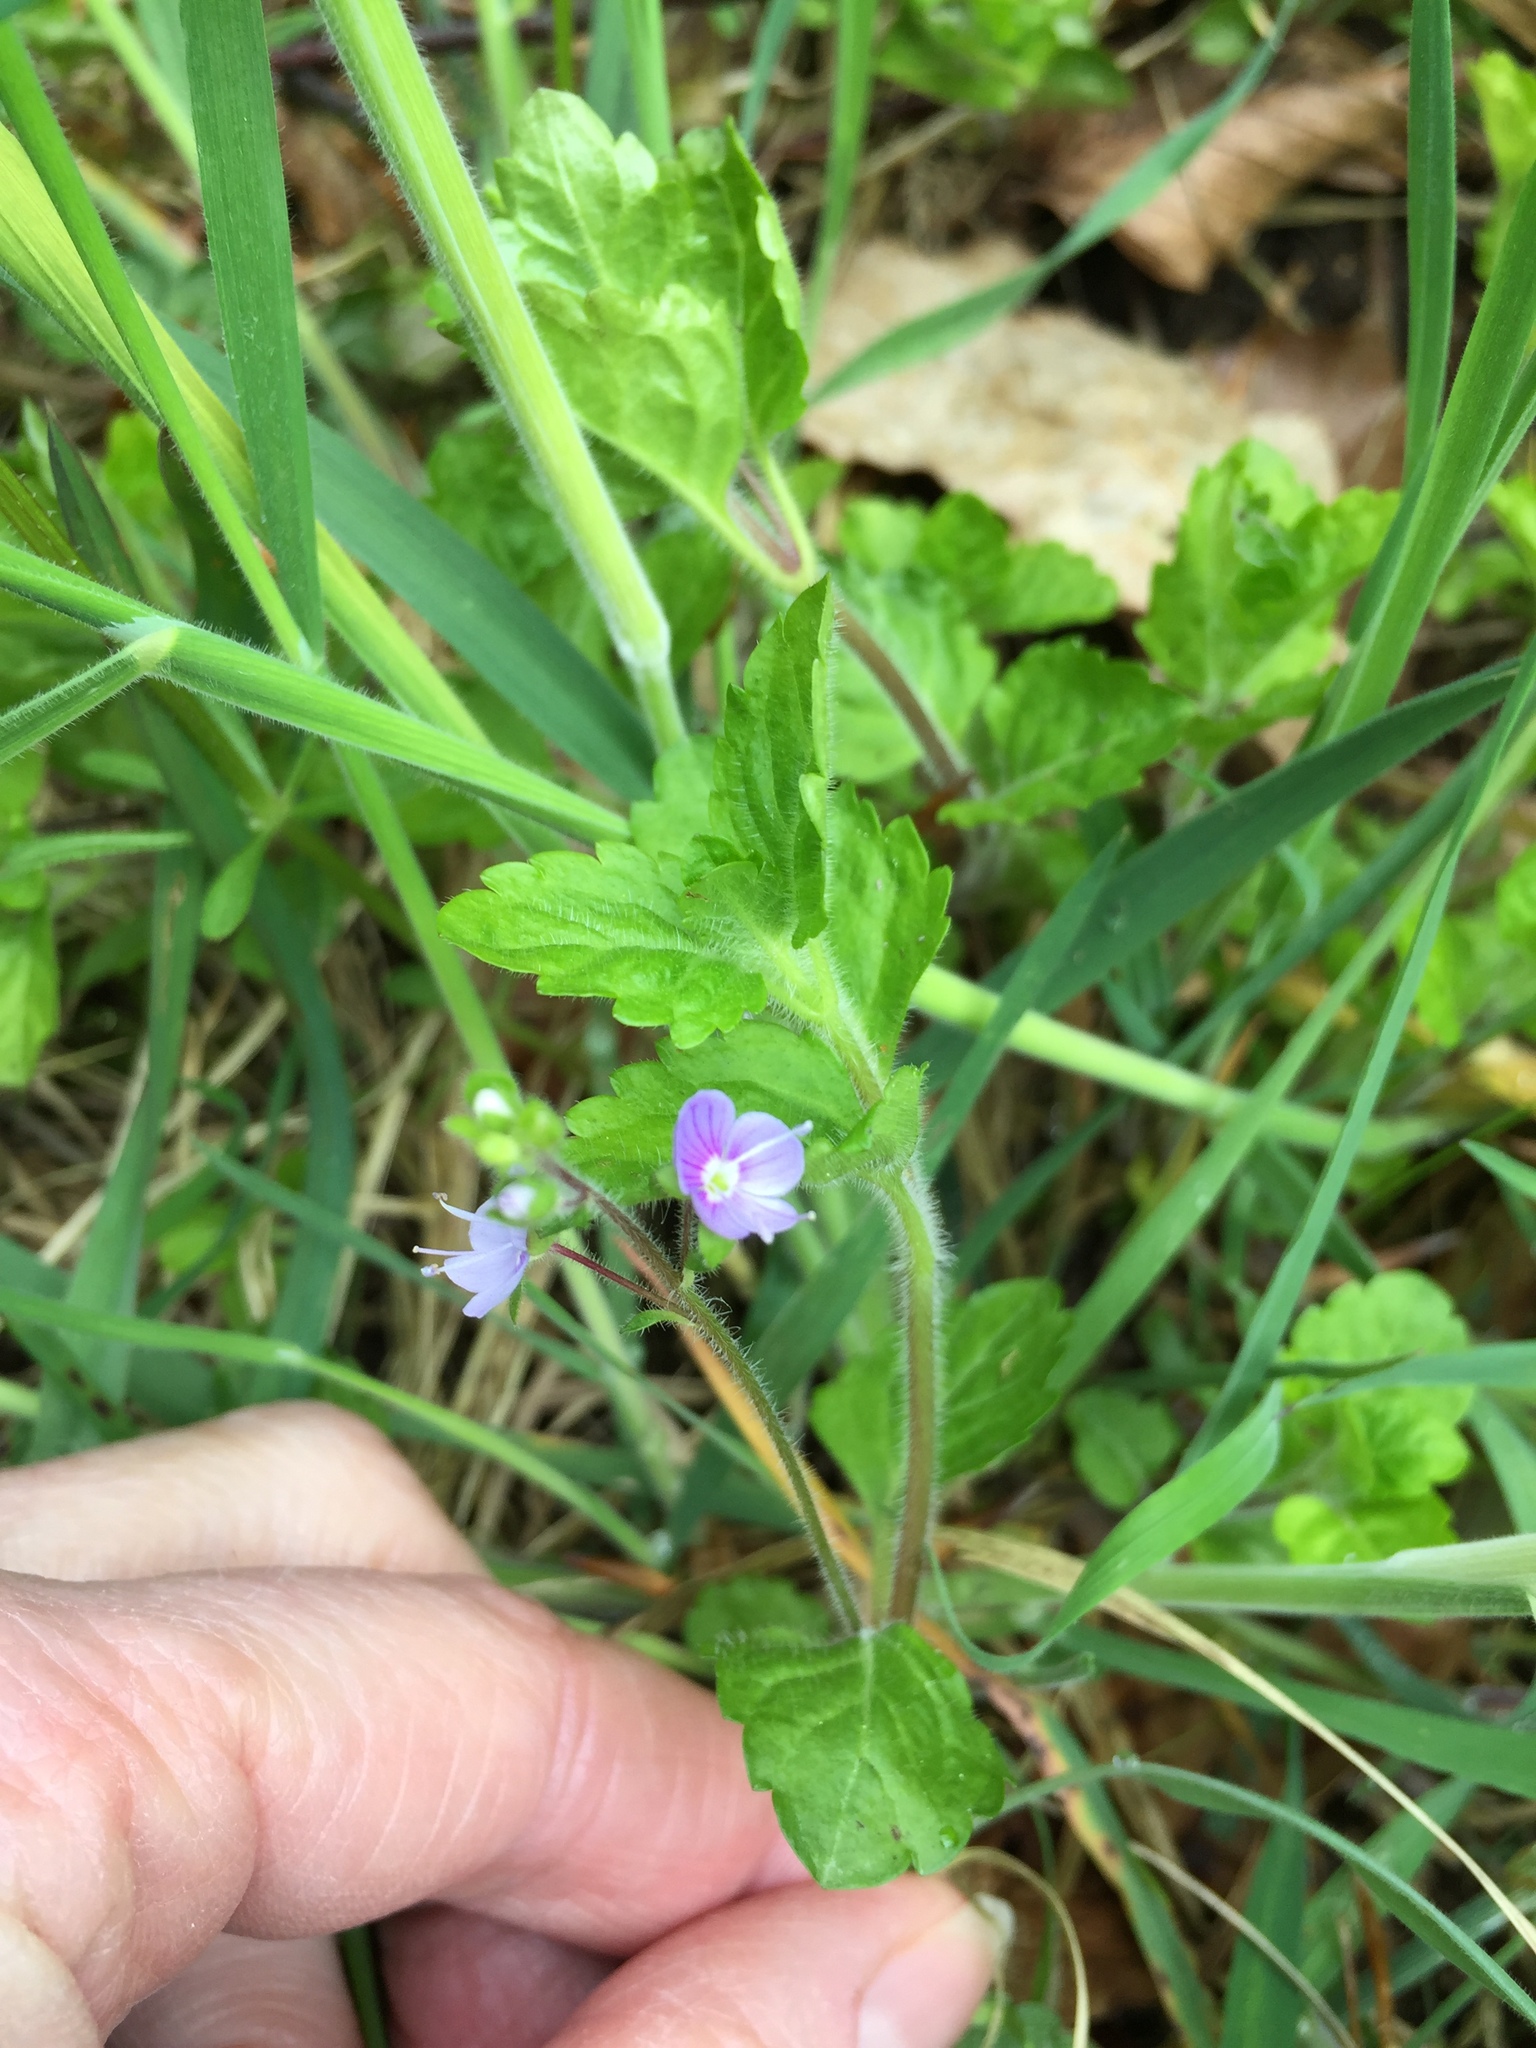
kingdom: Plantae
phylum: Tracheophyta
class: Magnoliopsida
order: Lamiales
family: Plantaginaceae
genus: Veronica
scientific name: Veronica montana
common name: Wood speedwell
